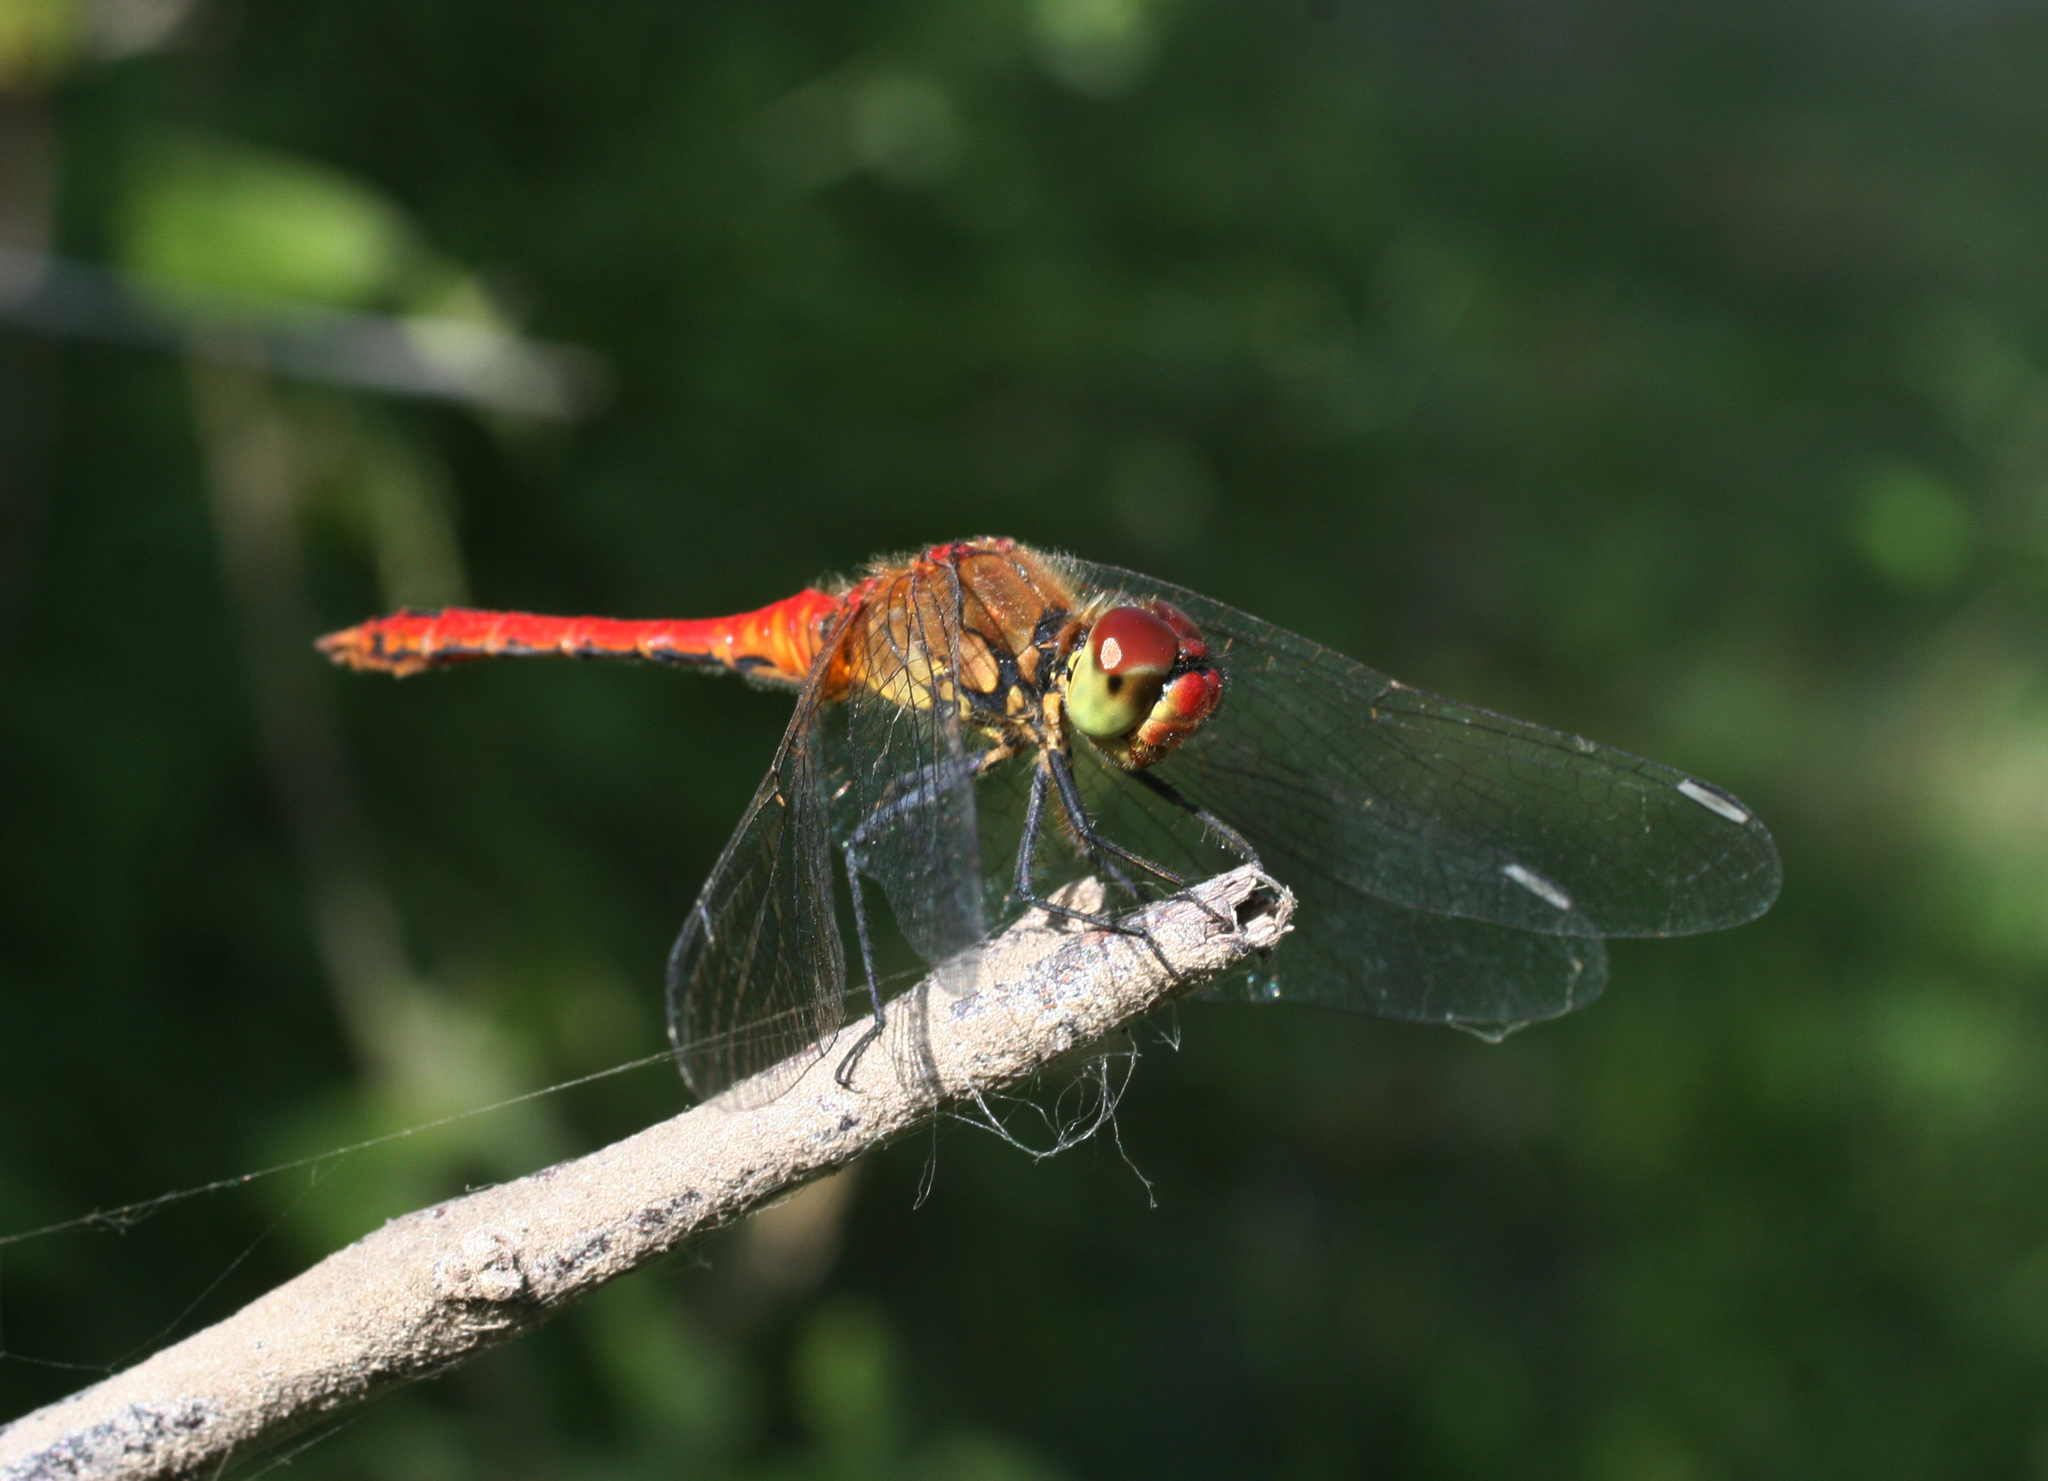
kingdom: Animalia
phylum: Arthropoda
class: Insecta
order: Odonata
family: Libellulidae
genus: Sympetrum
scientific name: Sympetrum sanguineum
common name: Ruddy darter
